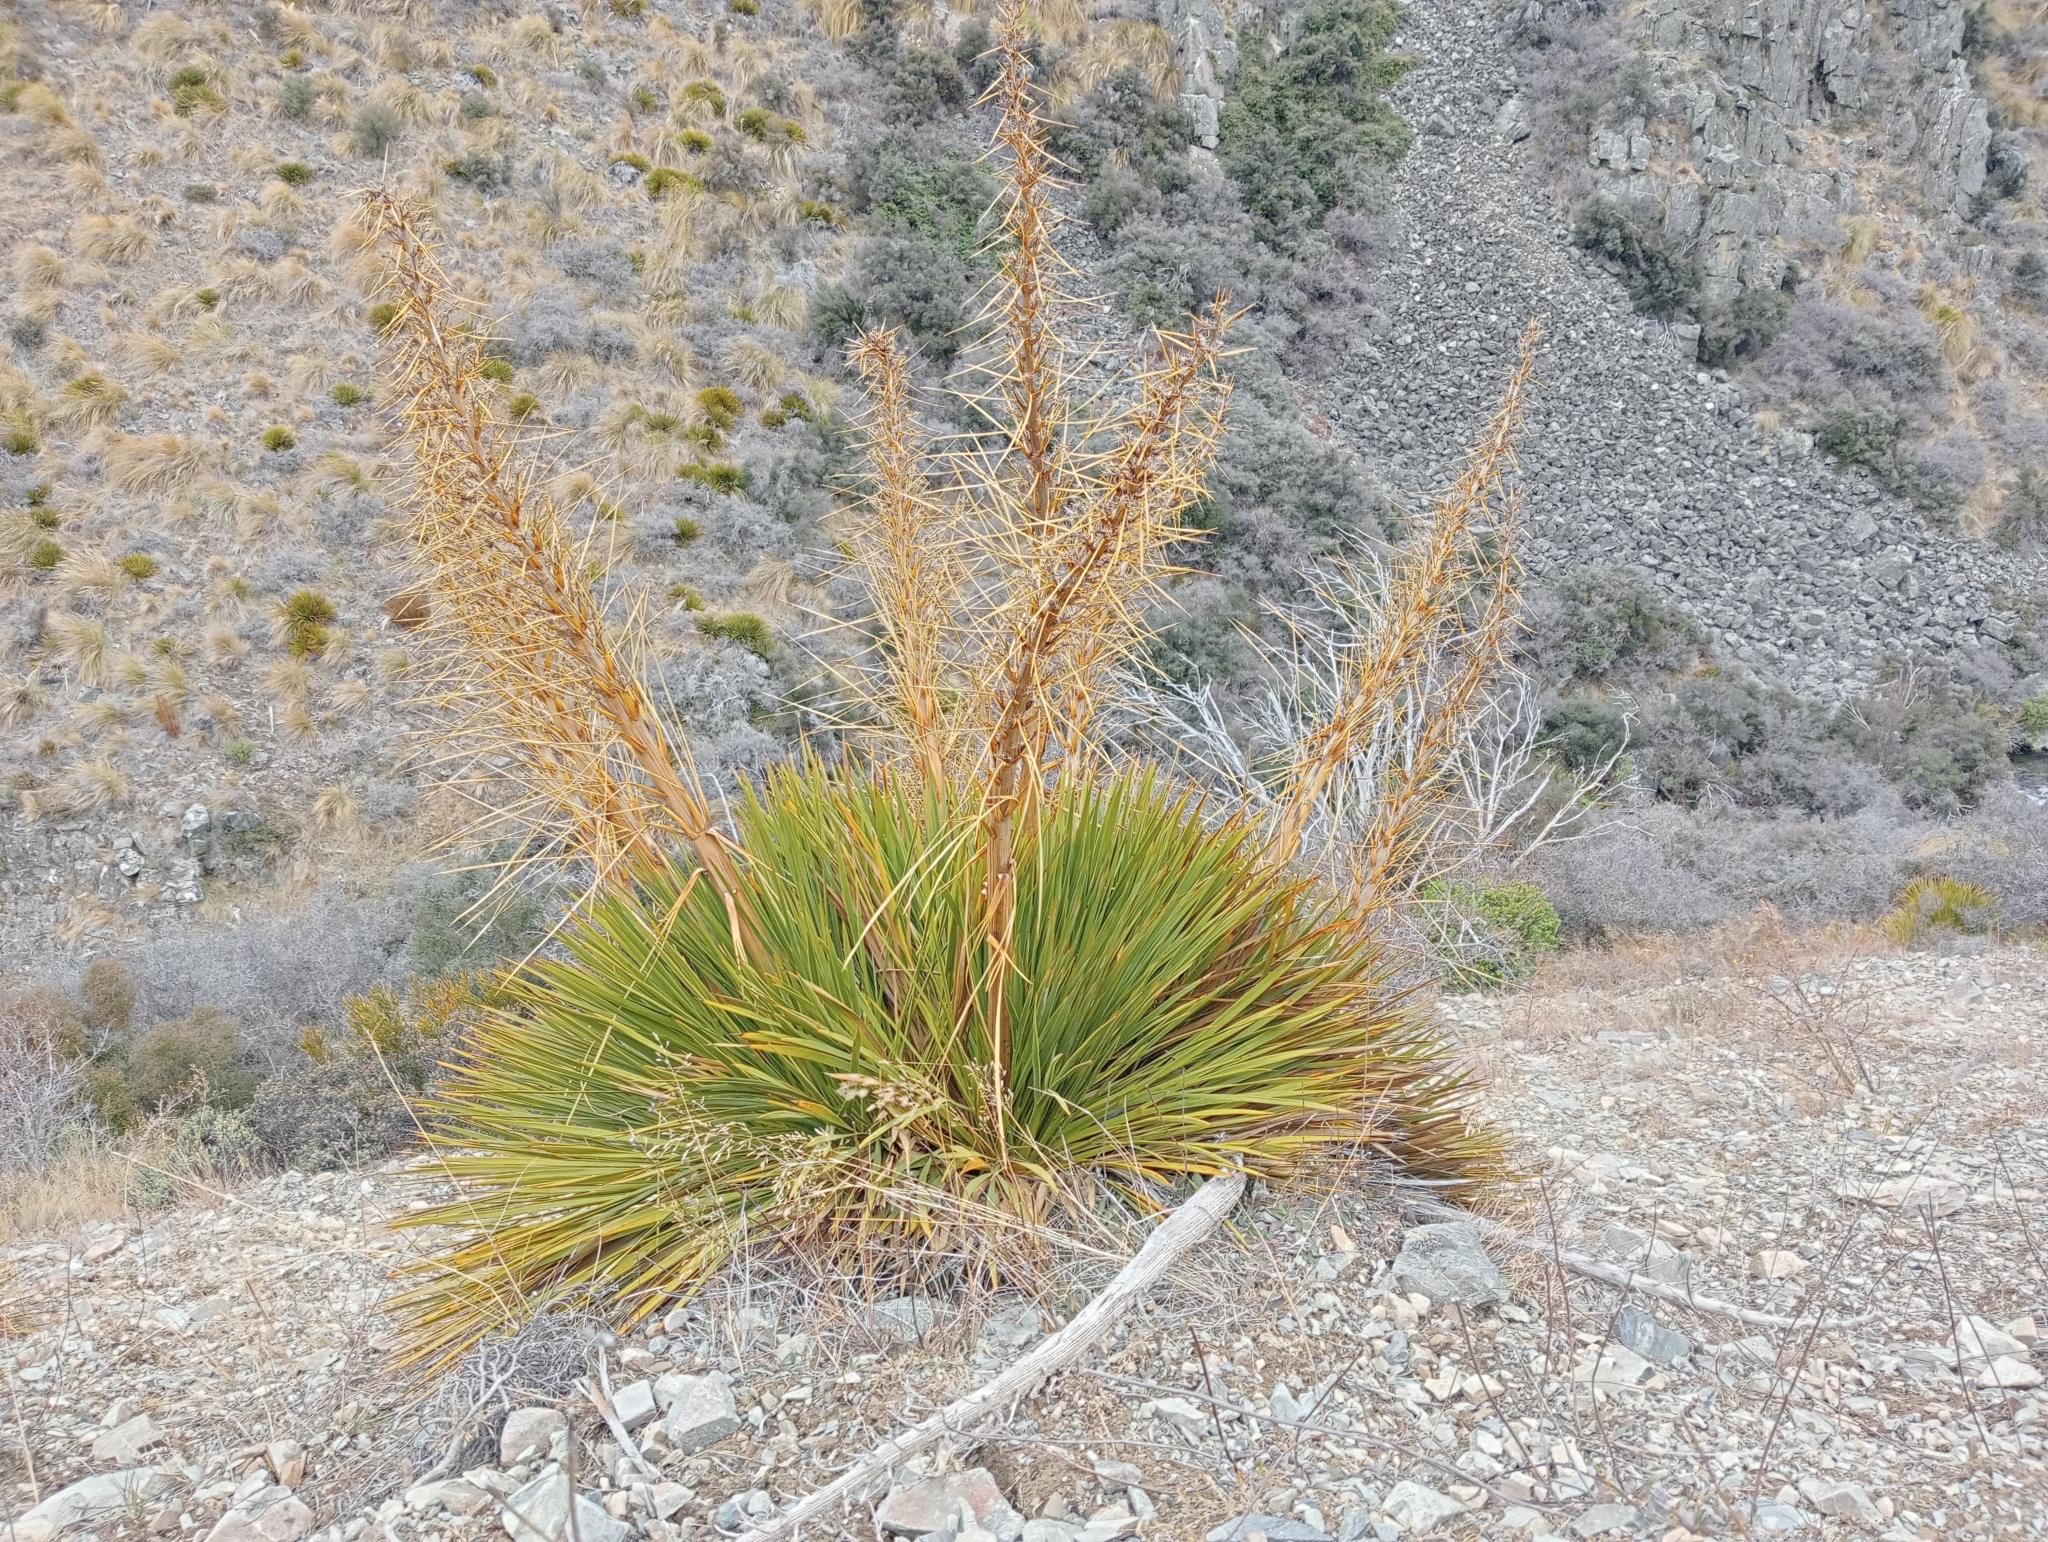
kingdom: Plantae
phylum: Tracheophyta
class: Magnoliopsida
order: Apiales
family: Apiaceae
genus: Aciphylla
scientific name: Aciphylla aurea
